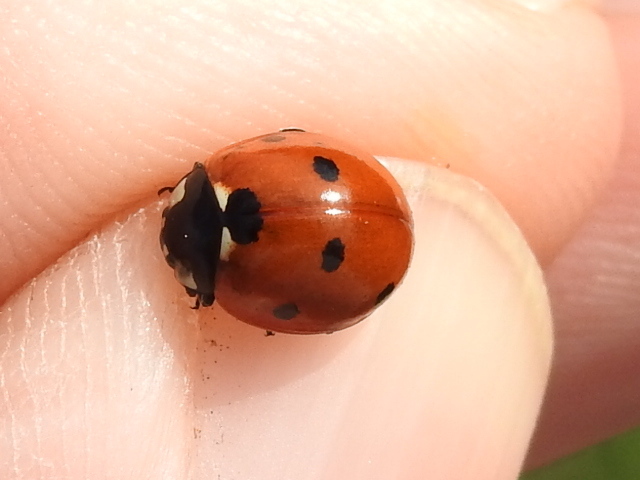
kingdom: Animalia
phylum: Arthropoda
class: Insecta
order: Coleoptera
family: Coccinellidae
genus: Coccinella
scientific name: Coccinella septempunctata
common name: Sevenspotted lady beetle
